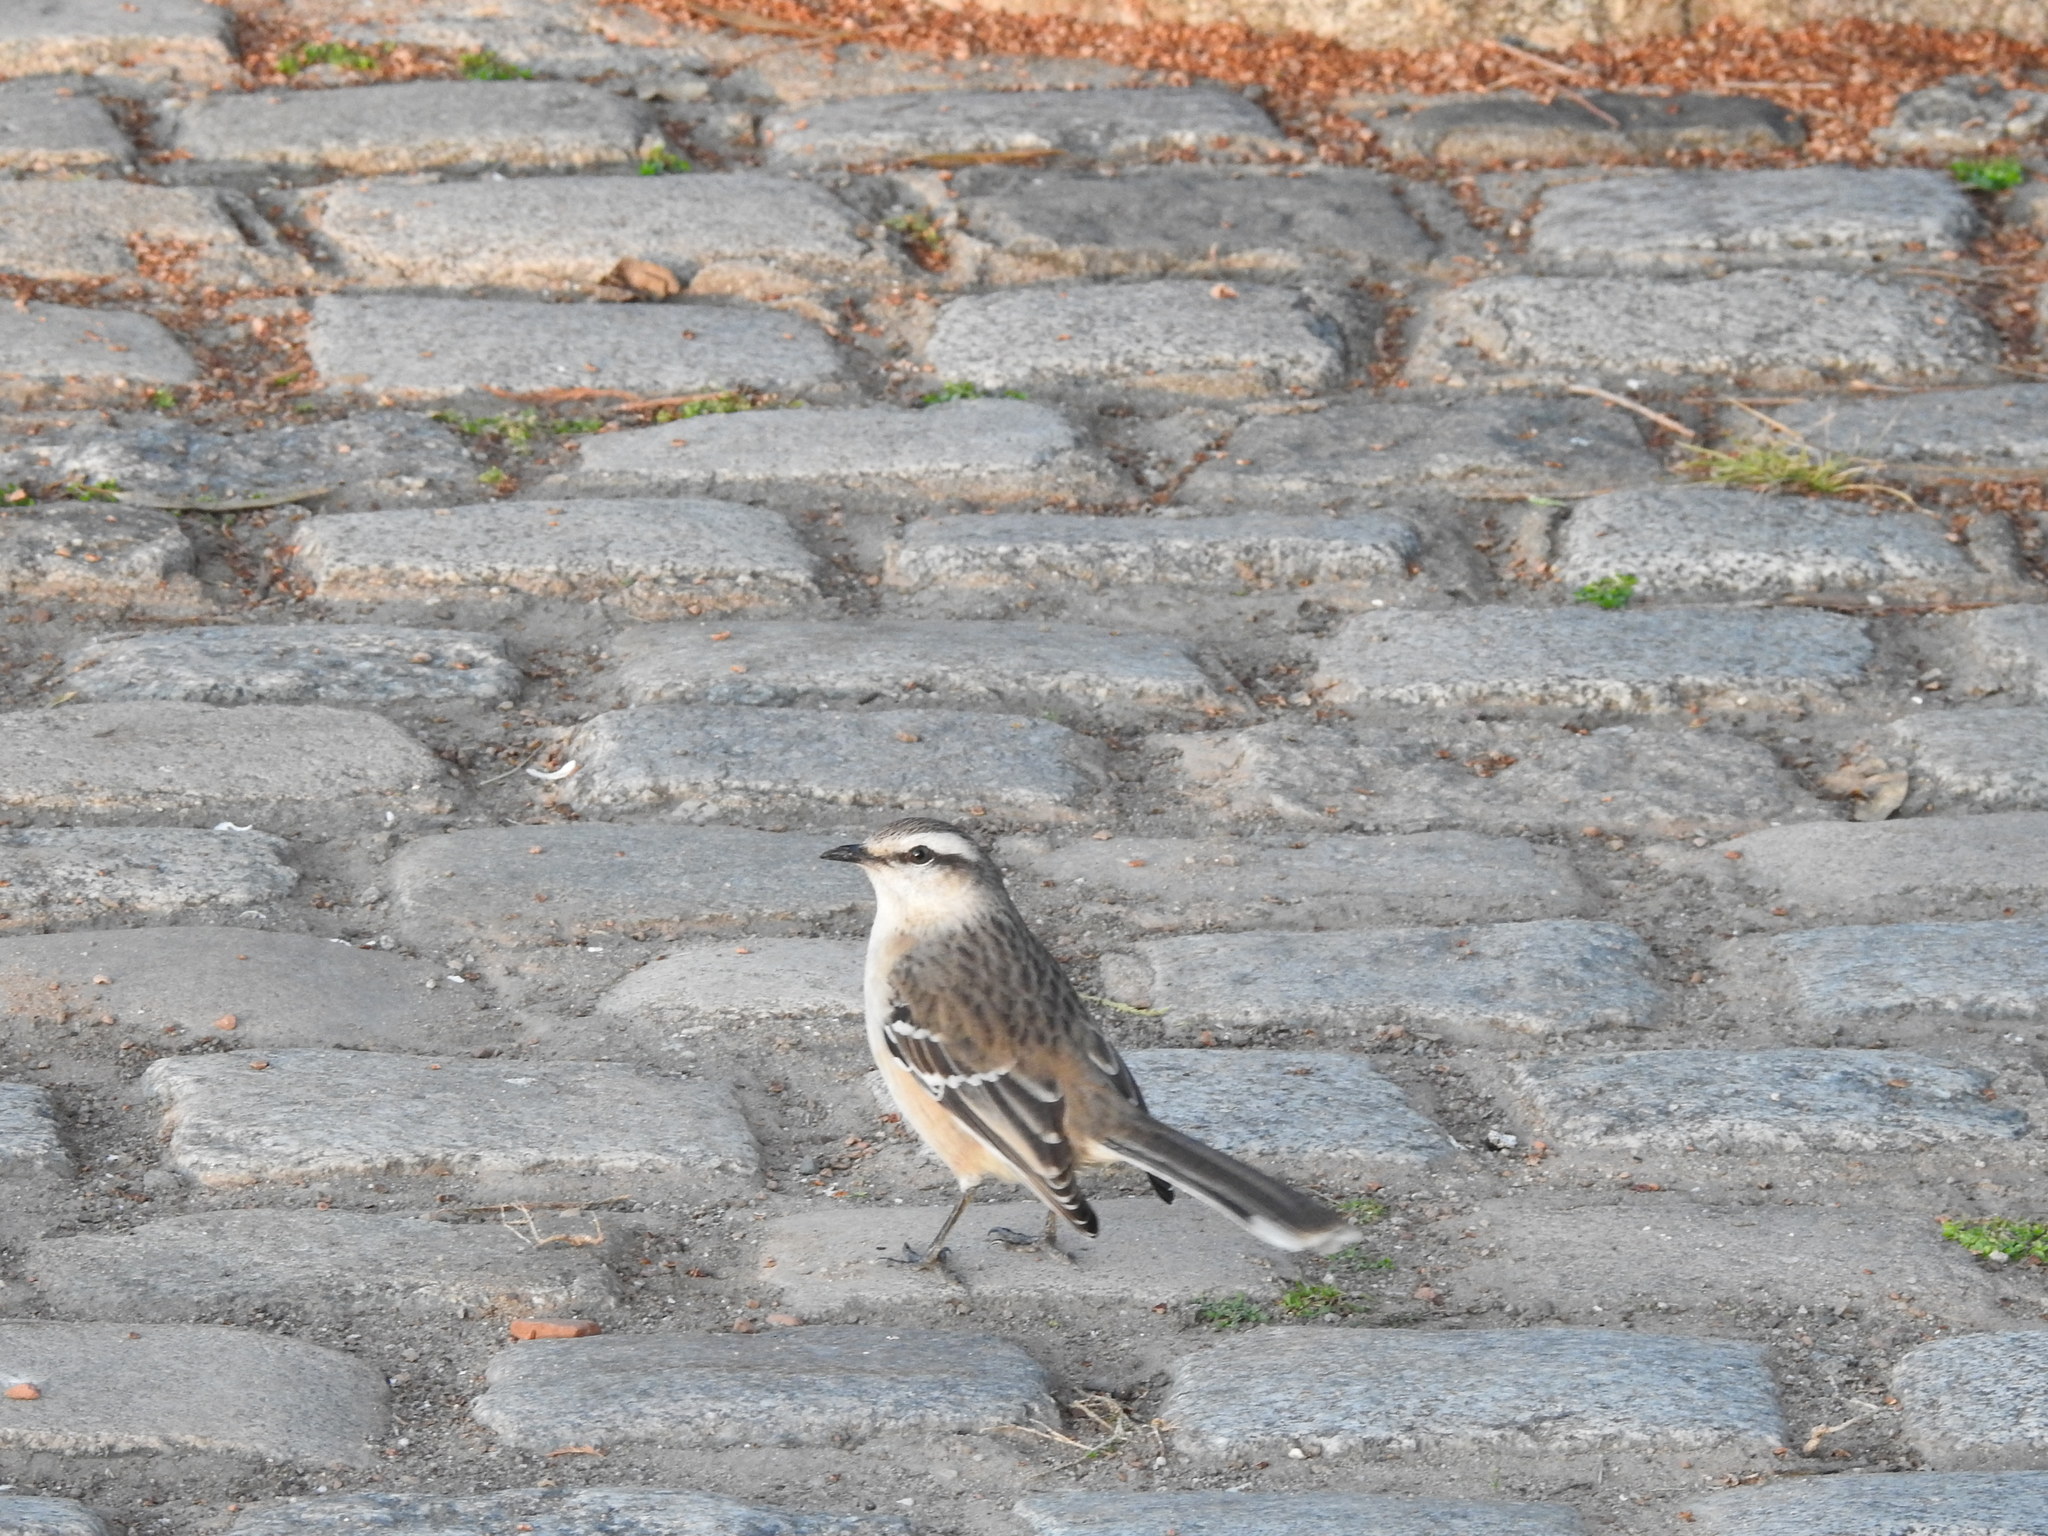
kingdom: Animalia
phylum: Chordata
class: Aves
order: Passeriformes
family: Mimidae
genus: Mimus
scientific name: Mimus saturninus
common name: Chalk-browed mockingbird
